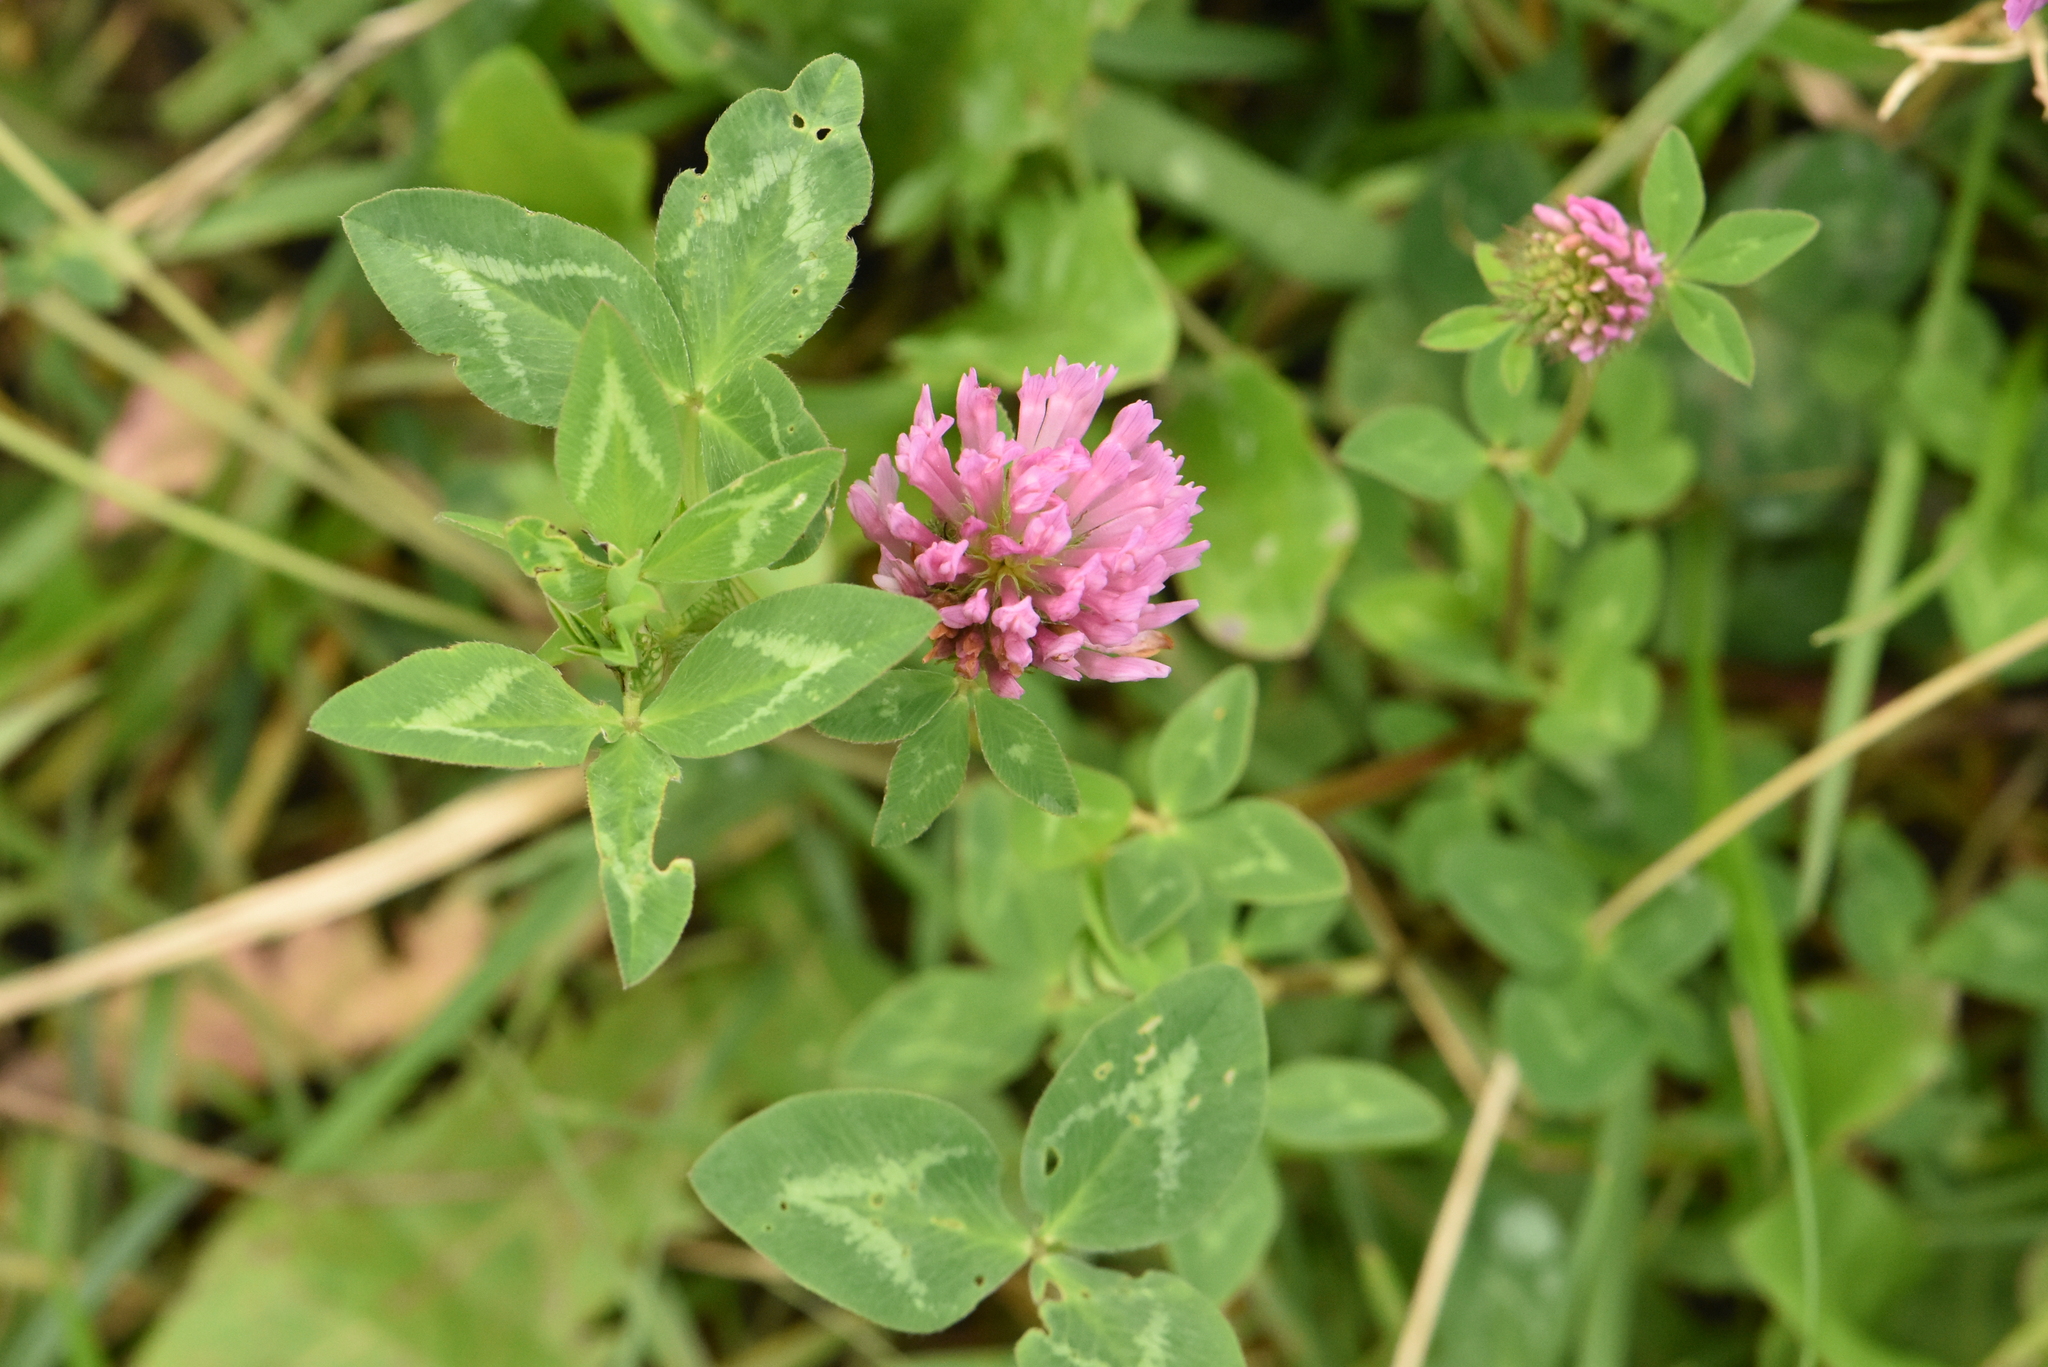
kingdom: Plantae
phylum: Tracheophyta
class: Magnoliopsida
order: Fabales
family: Fabaceae
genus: Trifolium
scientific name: Trifolium pratense
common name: Red clover
